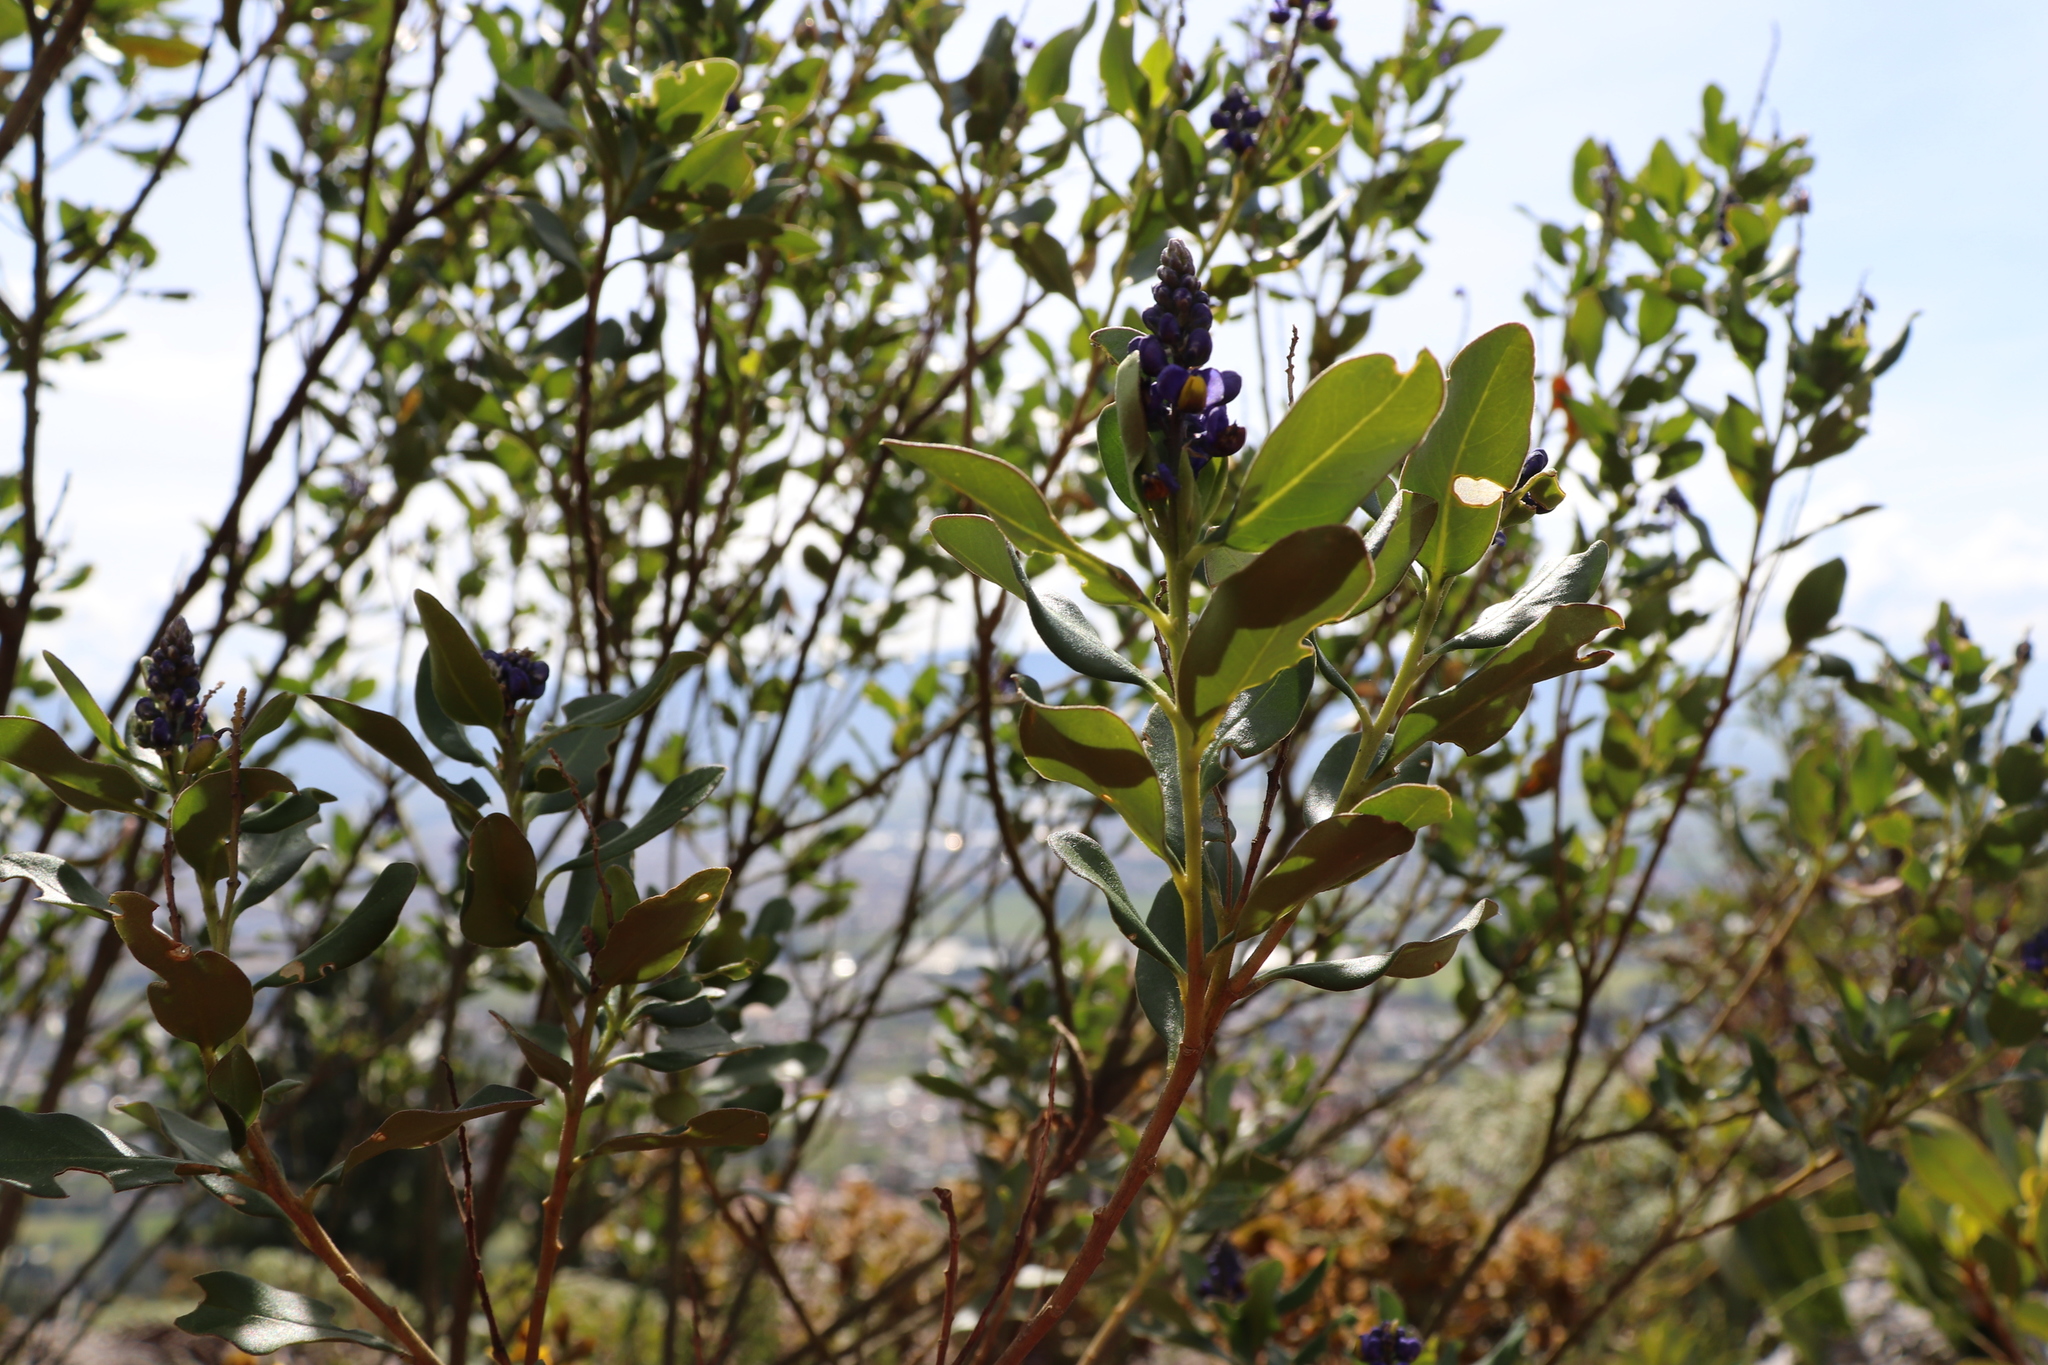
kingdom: Plantae
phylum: Tracheophyta
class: Magnoliopsida
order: Fabales
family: Polygalaceae
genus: Monnina
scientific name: Monnina aestuans
